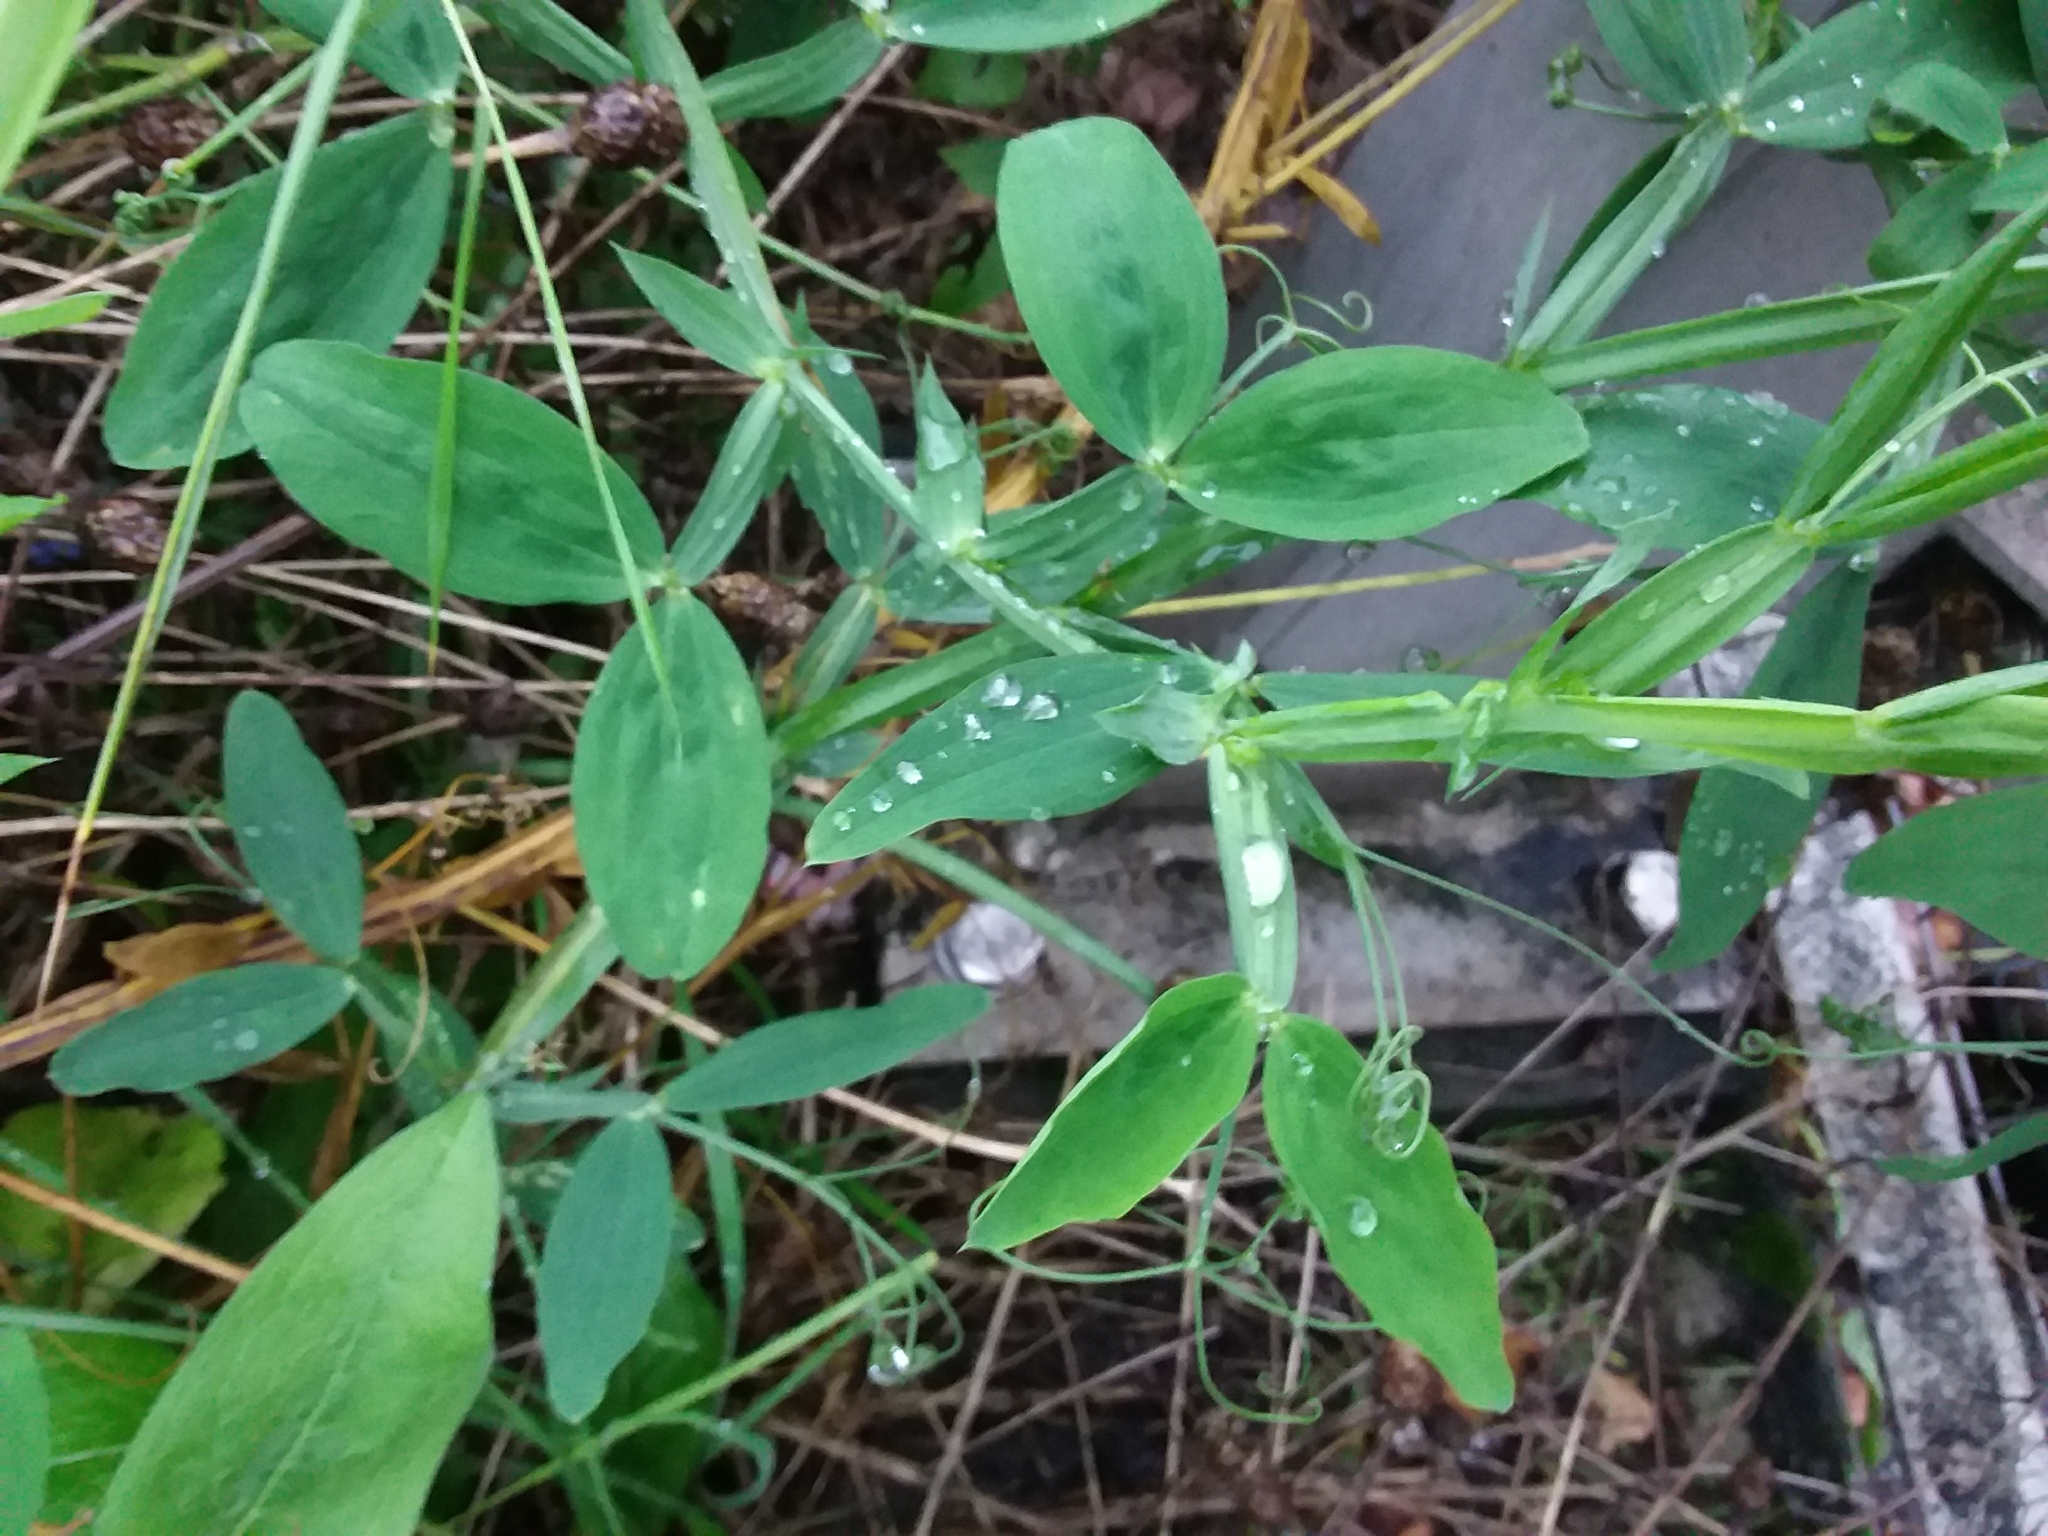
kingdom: Plantae
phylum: Tracheophyta
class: Magnoliopsida
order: Fabales
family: Fabaceae
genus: Lathyrus
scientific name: Lathyrus latifolius
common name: Perennial pea
